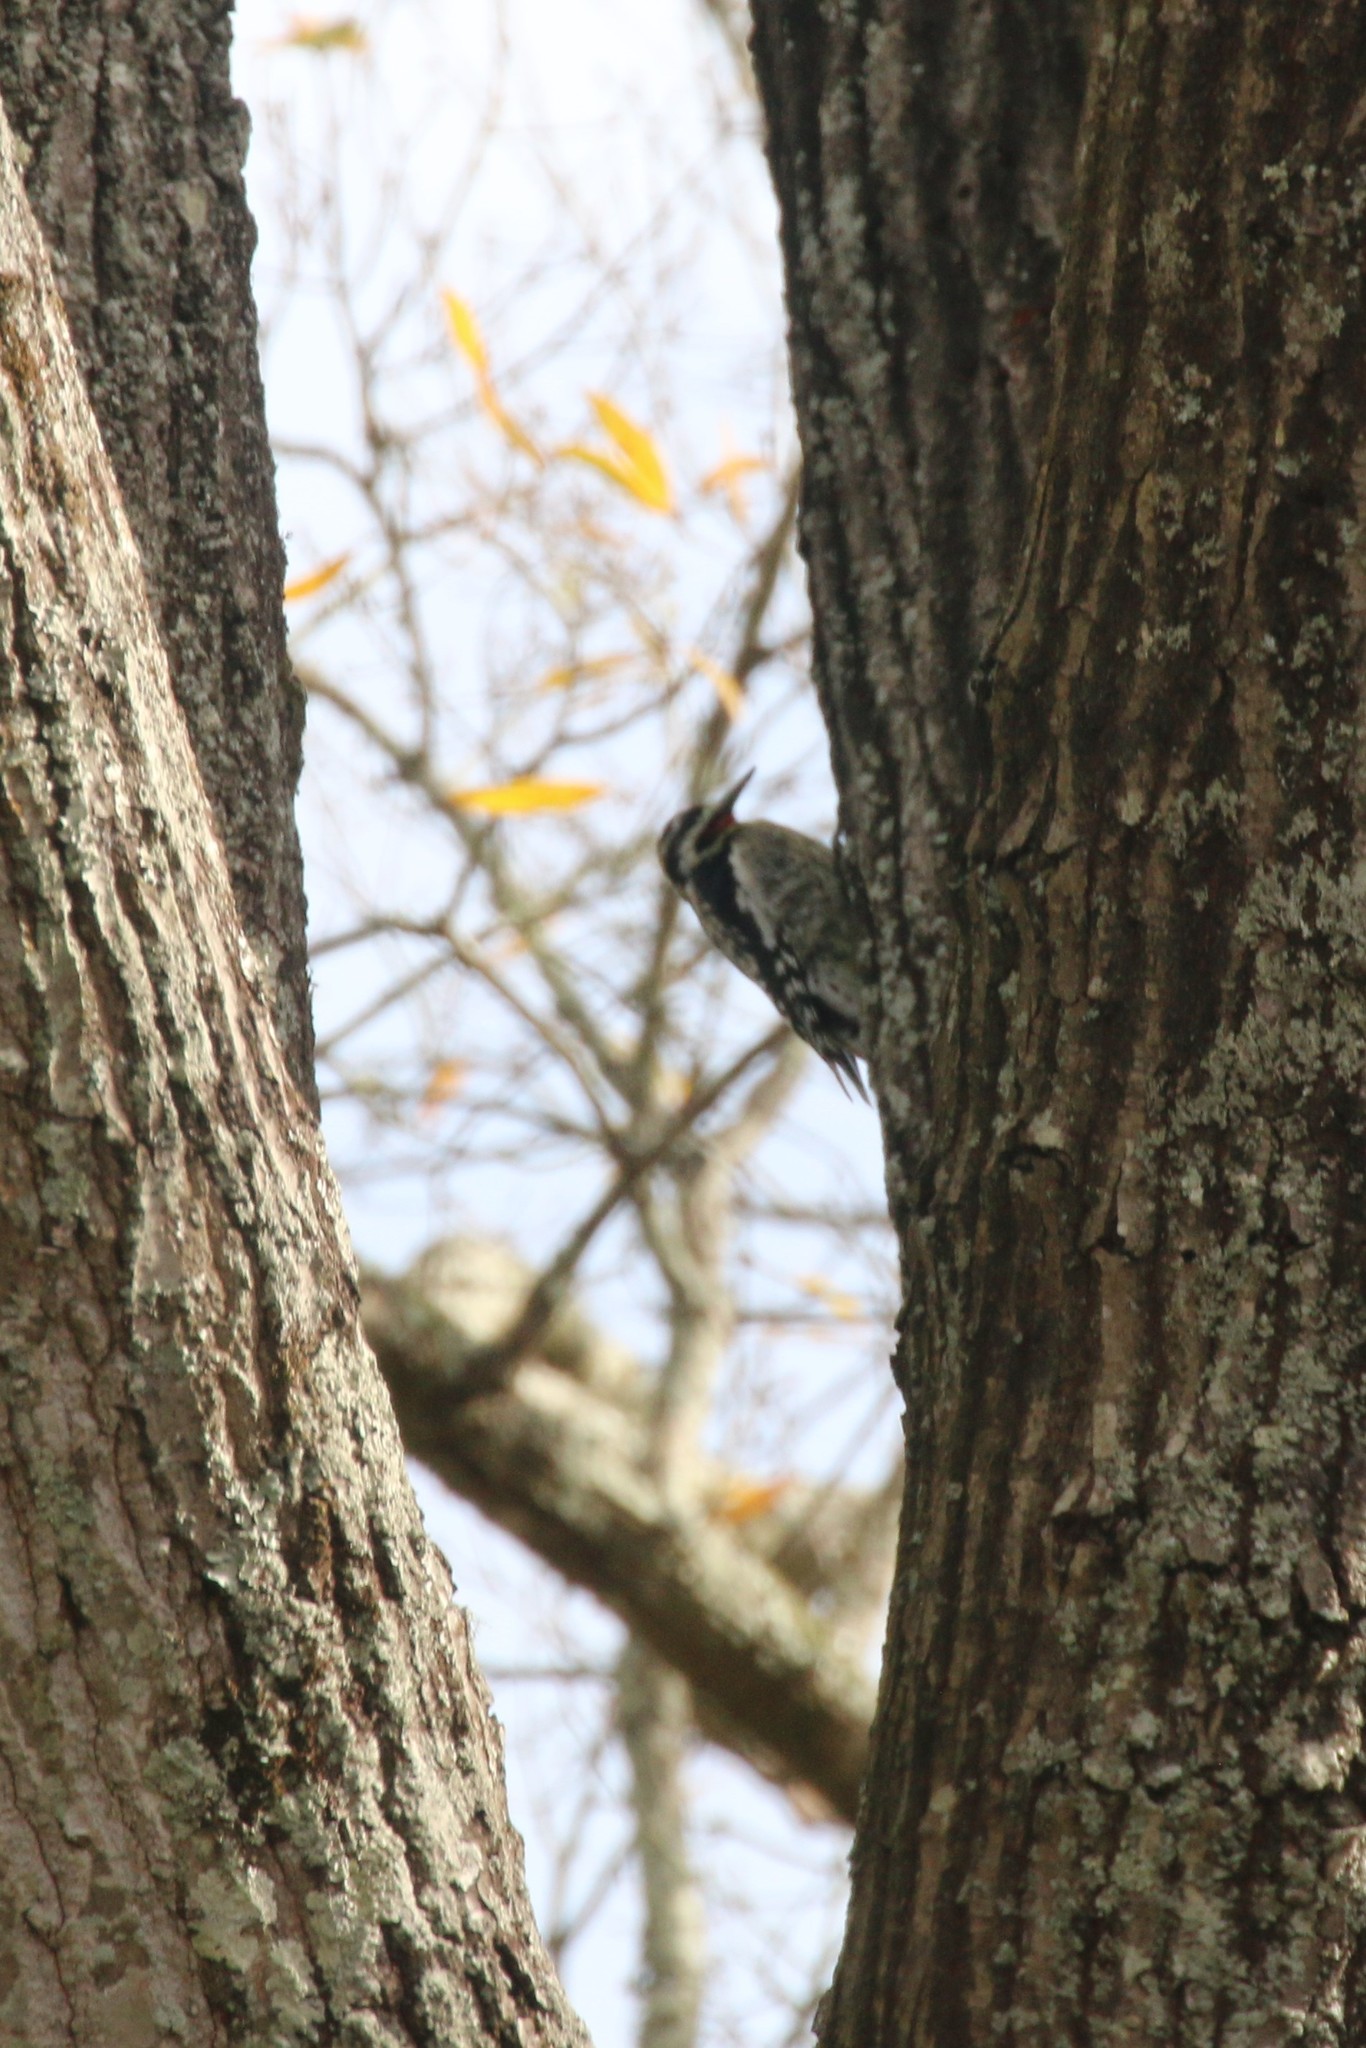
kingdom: Animalia
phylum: Chordata
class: Aves
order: Piciformes
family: Picidae
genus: Sphyrapicus
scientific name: Sphyrapicus varius
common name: Yellow-bellied sapsucker
